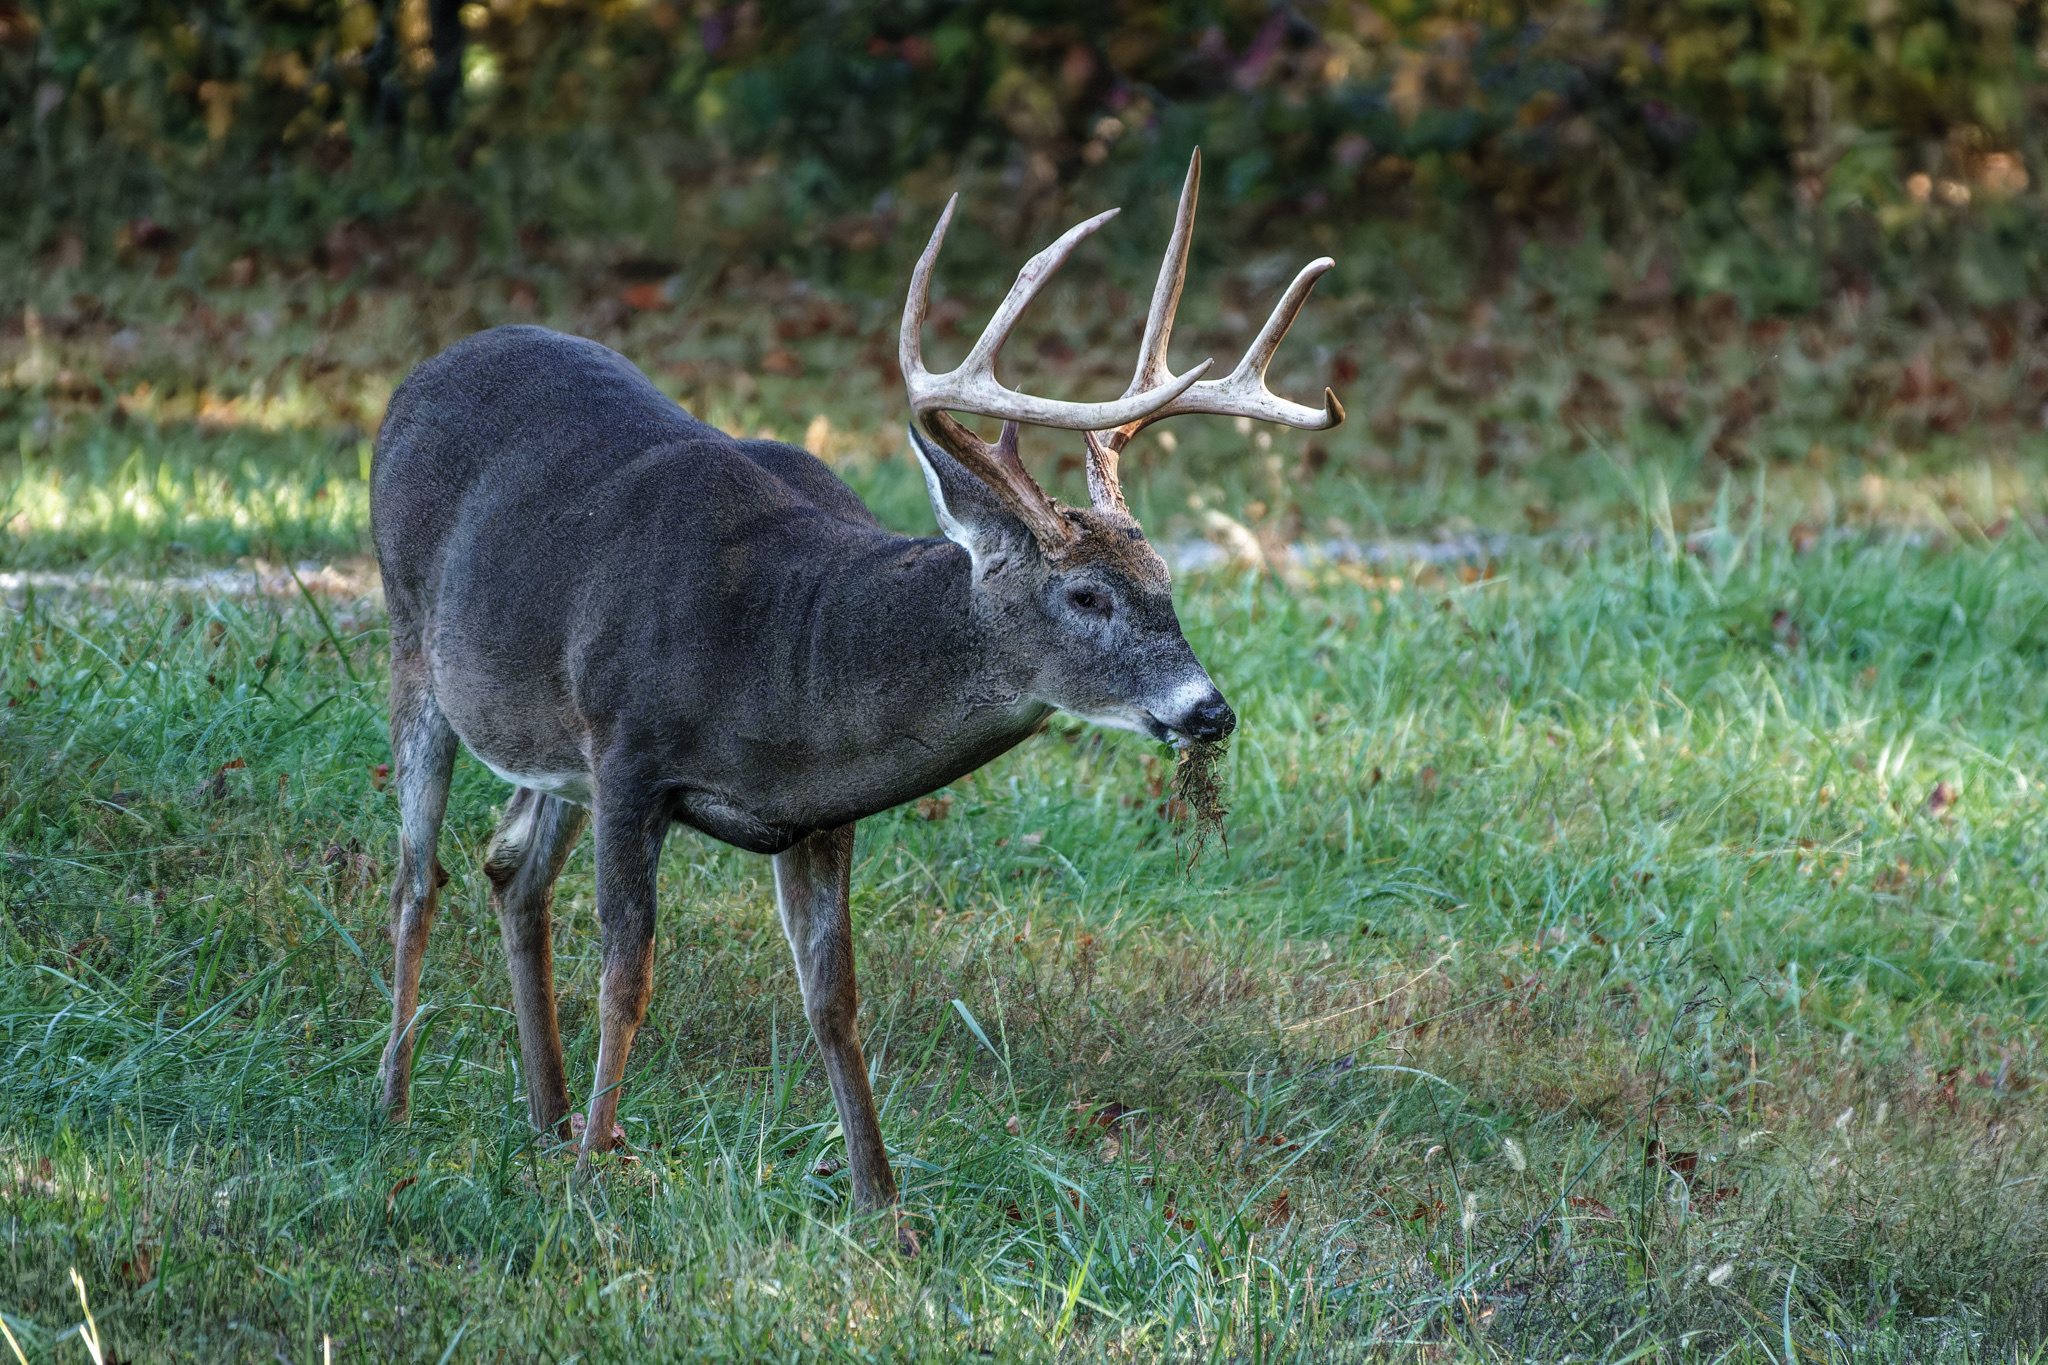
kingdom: Animalia
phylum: Chordata
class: Mammalia
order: Artiodactyla
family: Cervidae
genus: Odocoileus
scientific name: Odocoileus virginianus
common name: White-tailed deer
